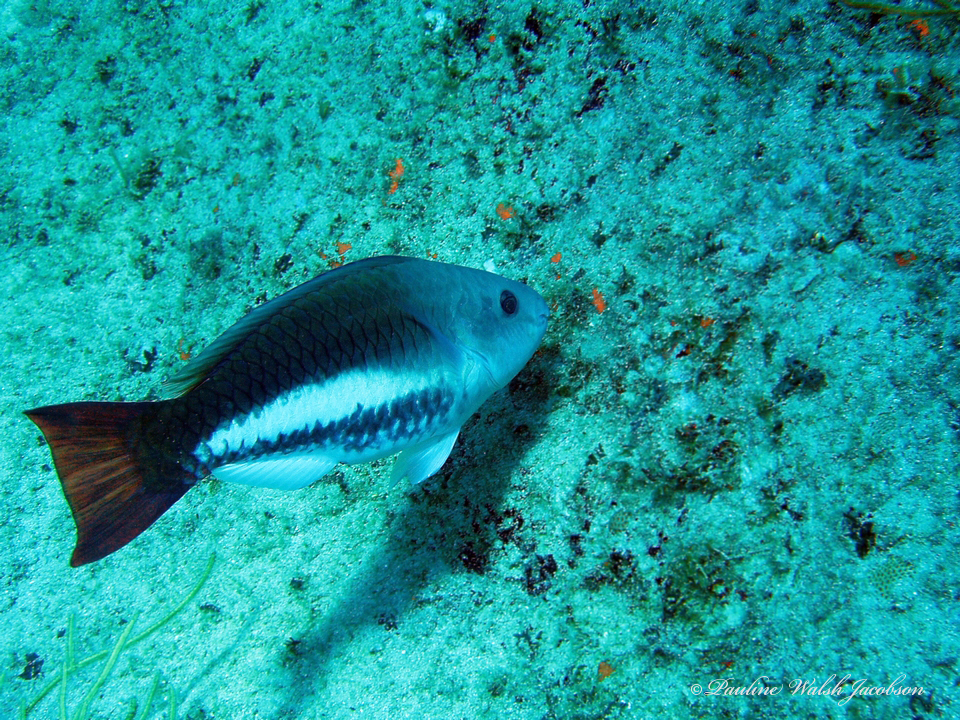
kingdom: Animalia
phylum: Chordata
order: Perciformes
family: Scaridae
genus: Scarus
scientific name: Scarus vetula
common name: Queen parrotfish
